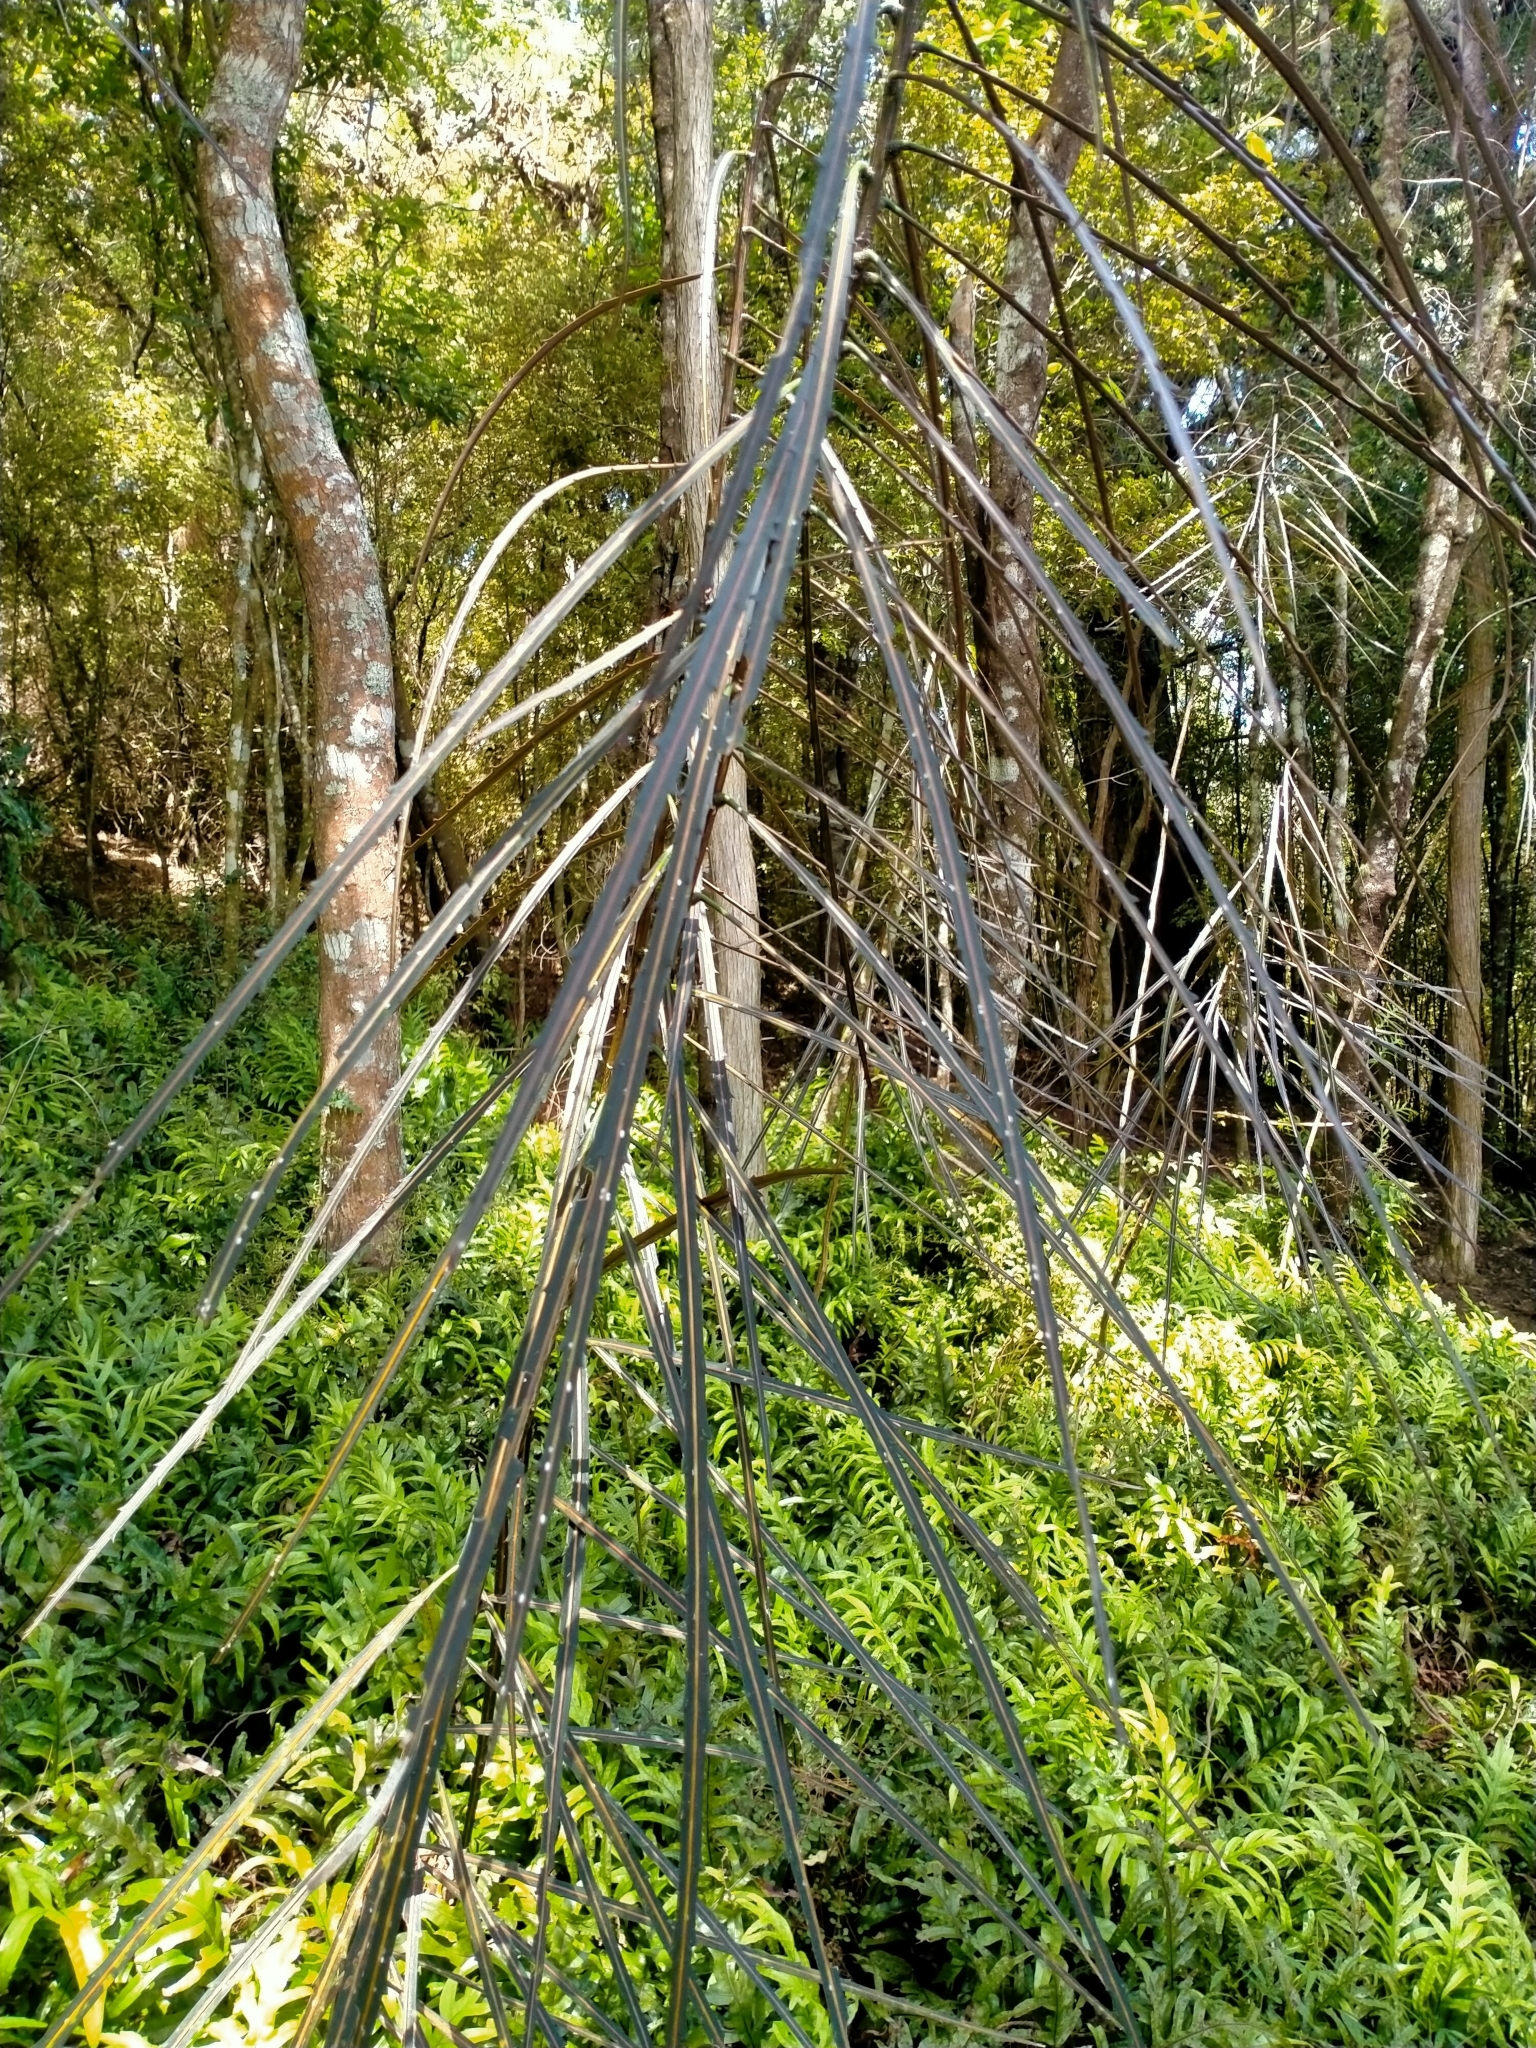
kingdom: Plantae
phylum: Tracheophyta
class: Magnoliopsida
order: Apiales
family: Araliaceae
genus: Pseudopanax
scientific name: Pseudopanax crassifolius
